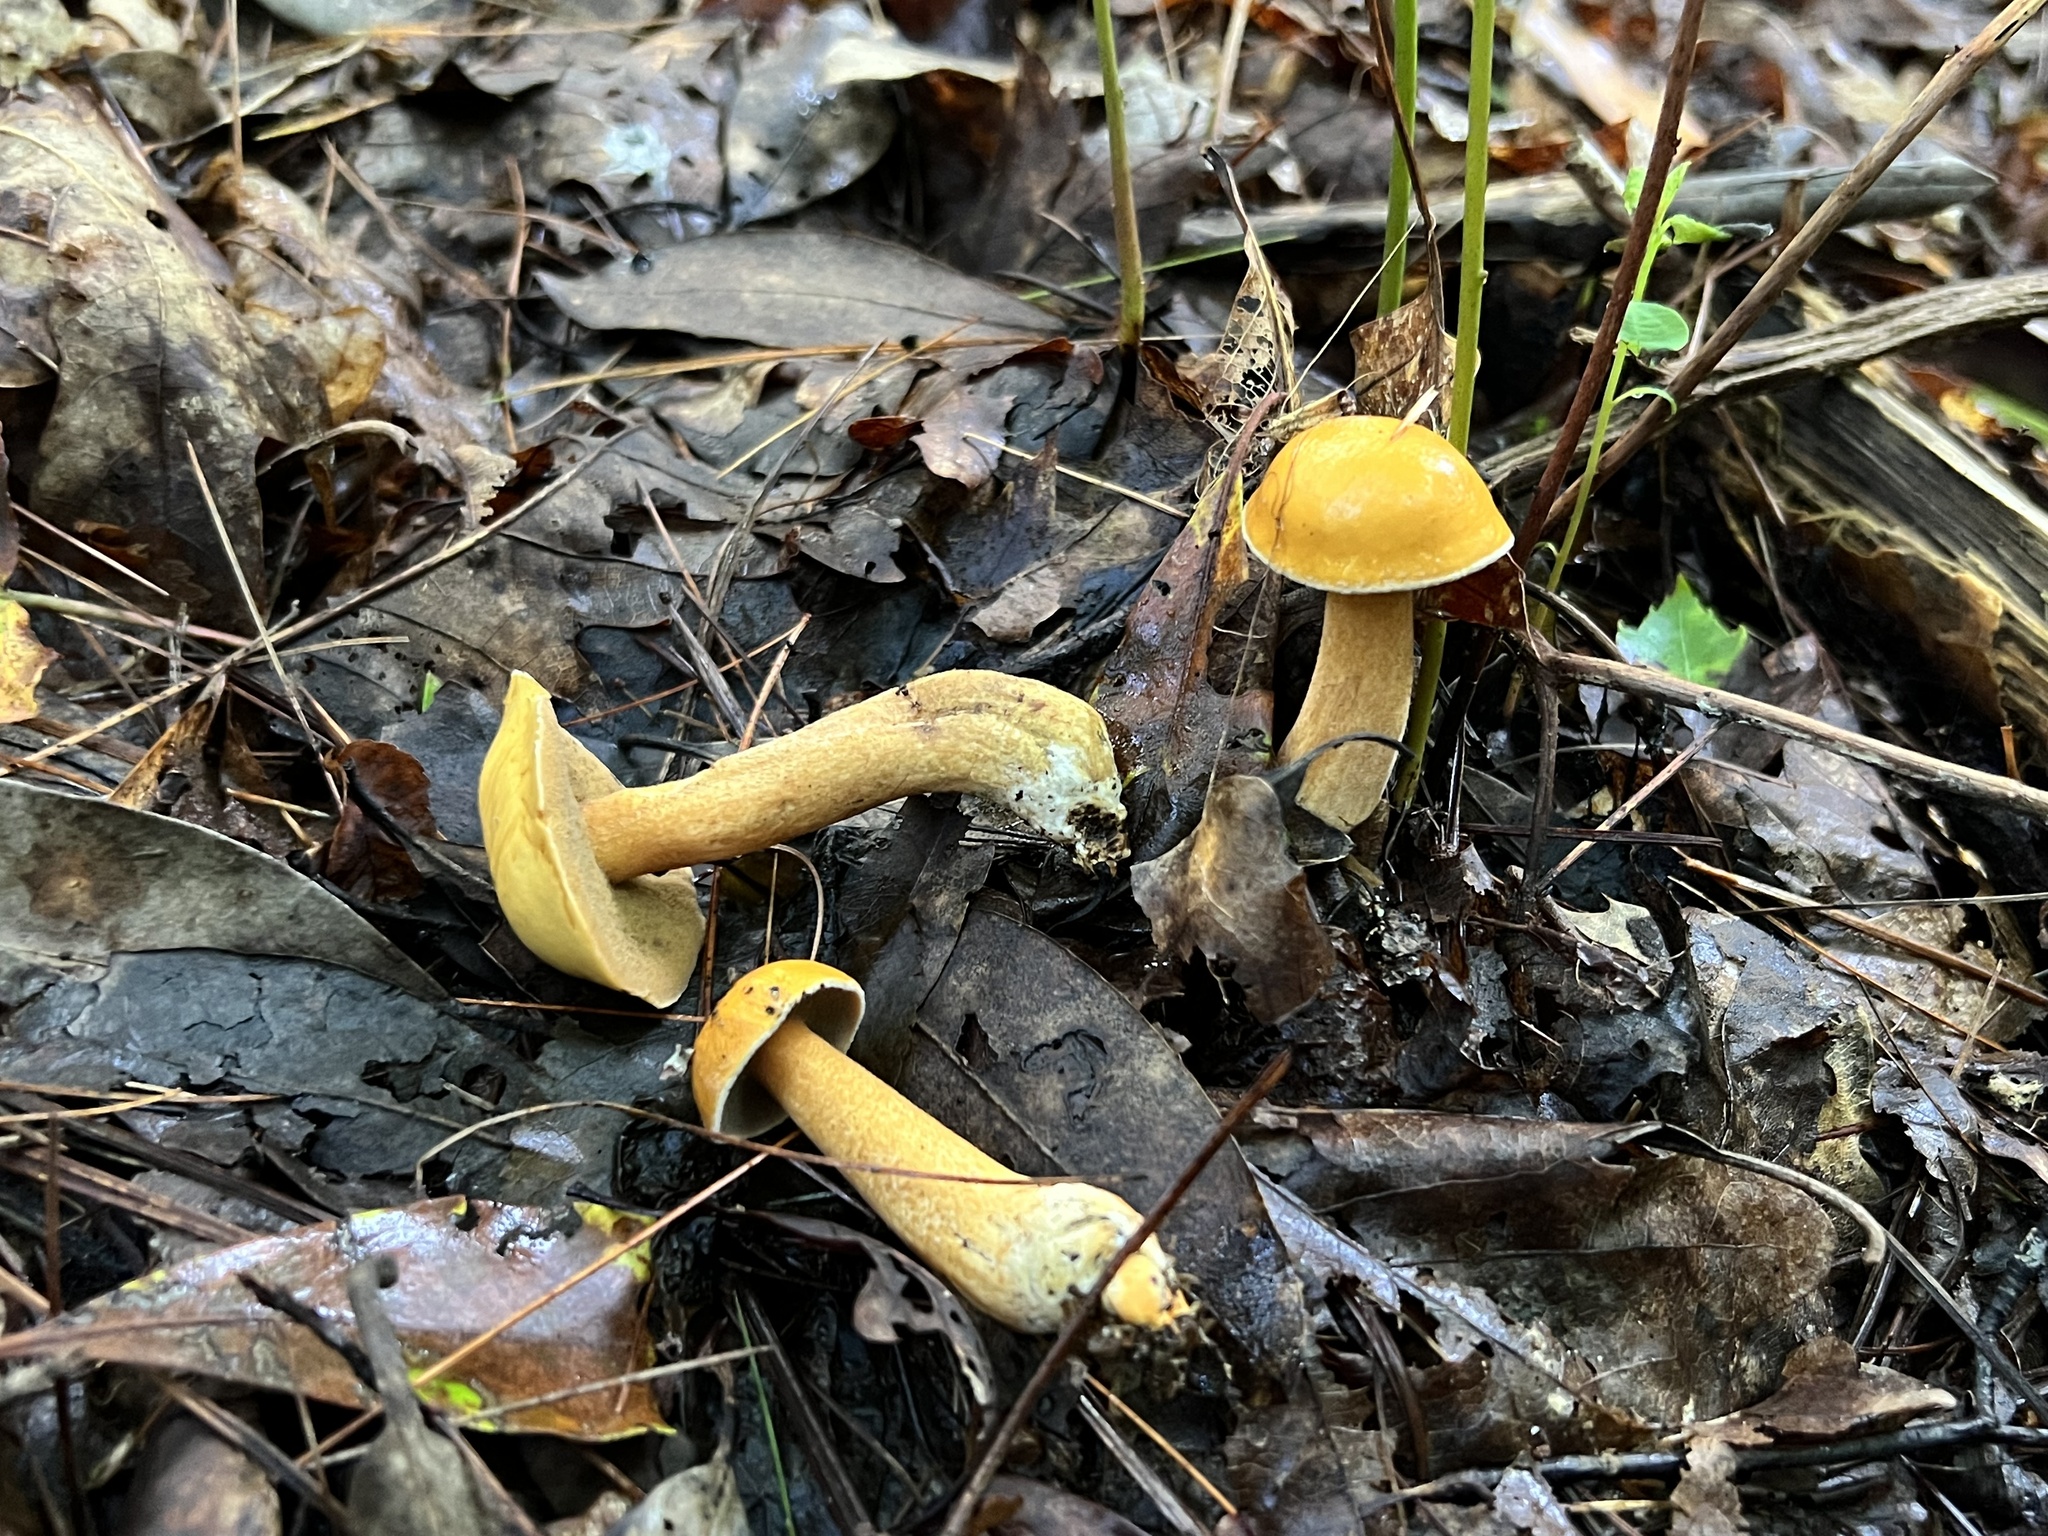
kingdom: Fungi
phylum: Basidiomycota
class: Agaricomycetes
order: Boletales
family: Suillaceae
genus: Suillus
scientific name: Suillus punctipes
